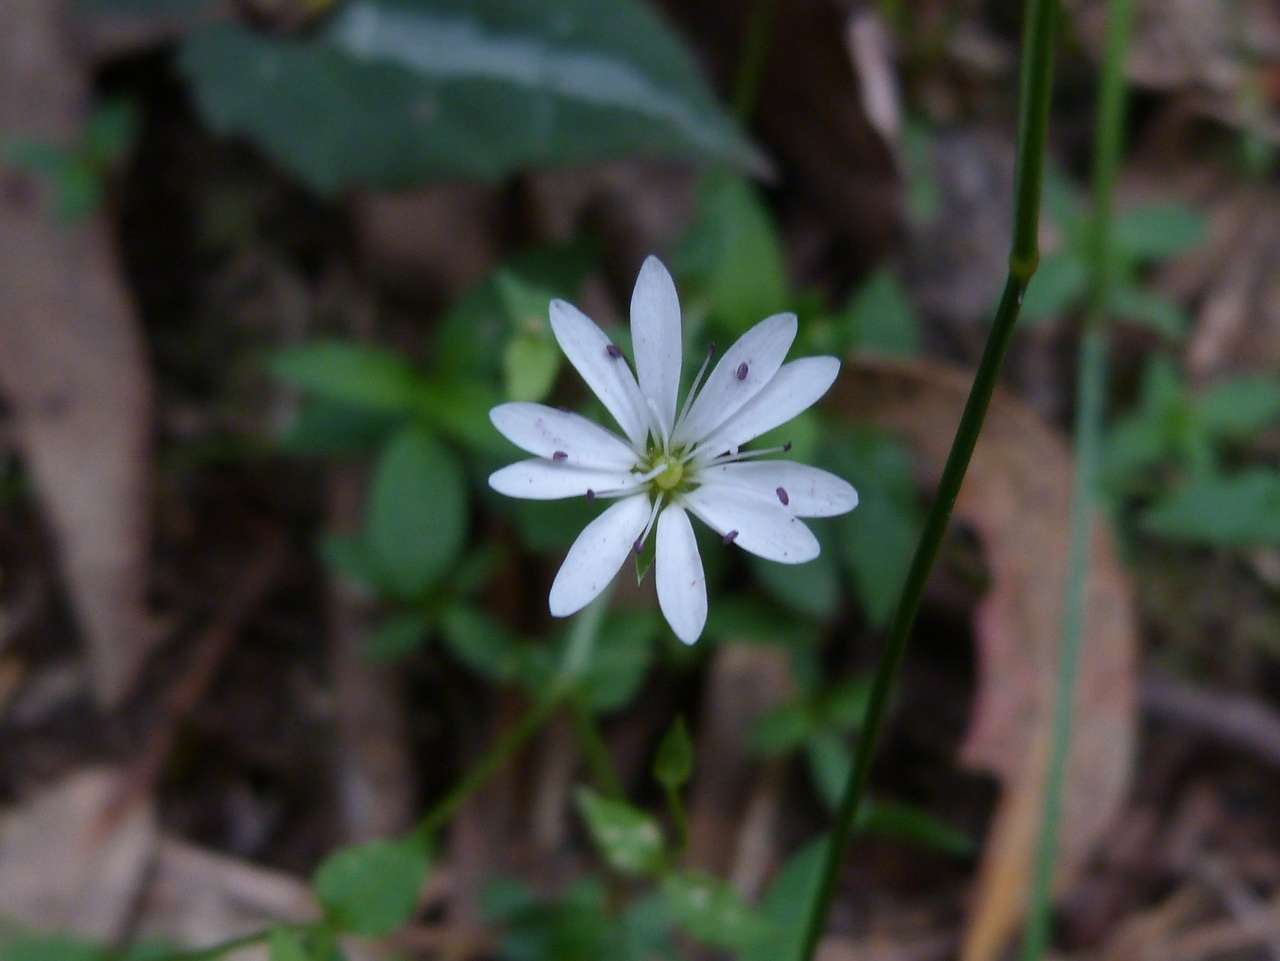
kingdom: Plantae
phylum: Tracheophyta
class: Magnoliopsida
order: Caryophyllales
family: Caryophyllaceae
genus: Stellaria
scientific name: Stellaria flaccida
